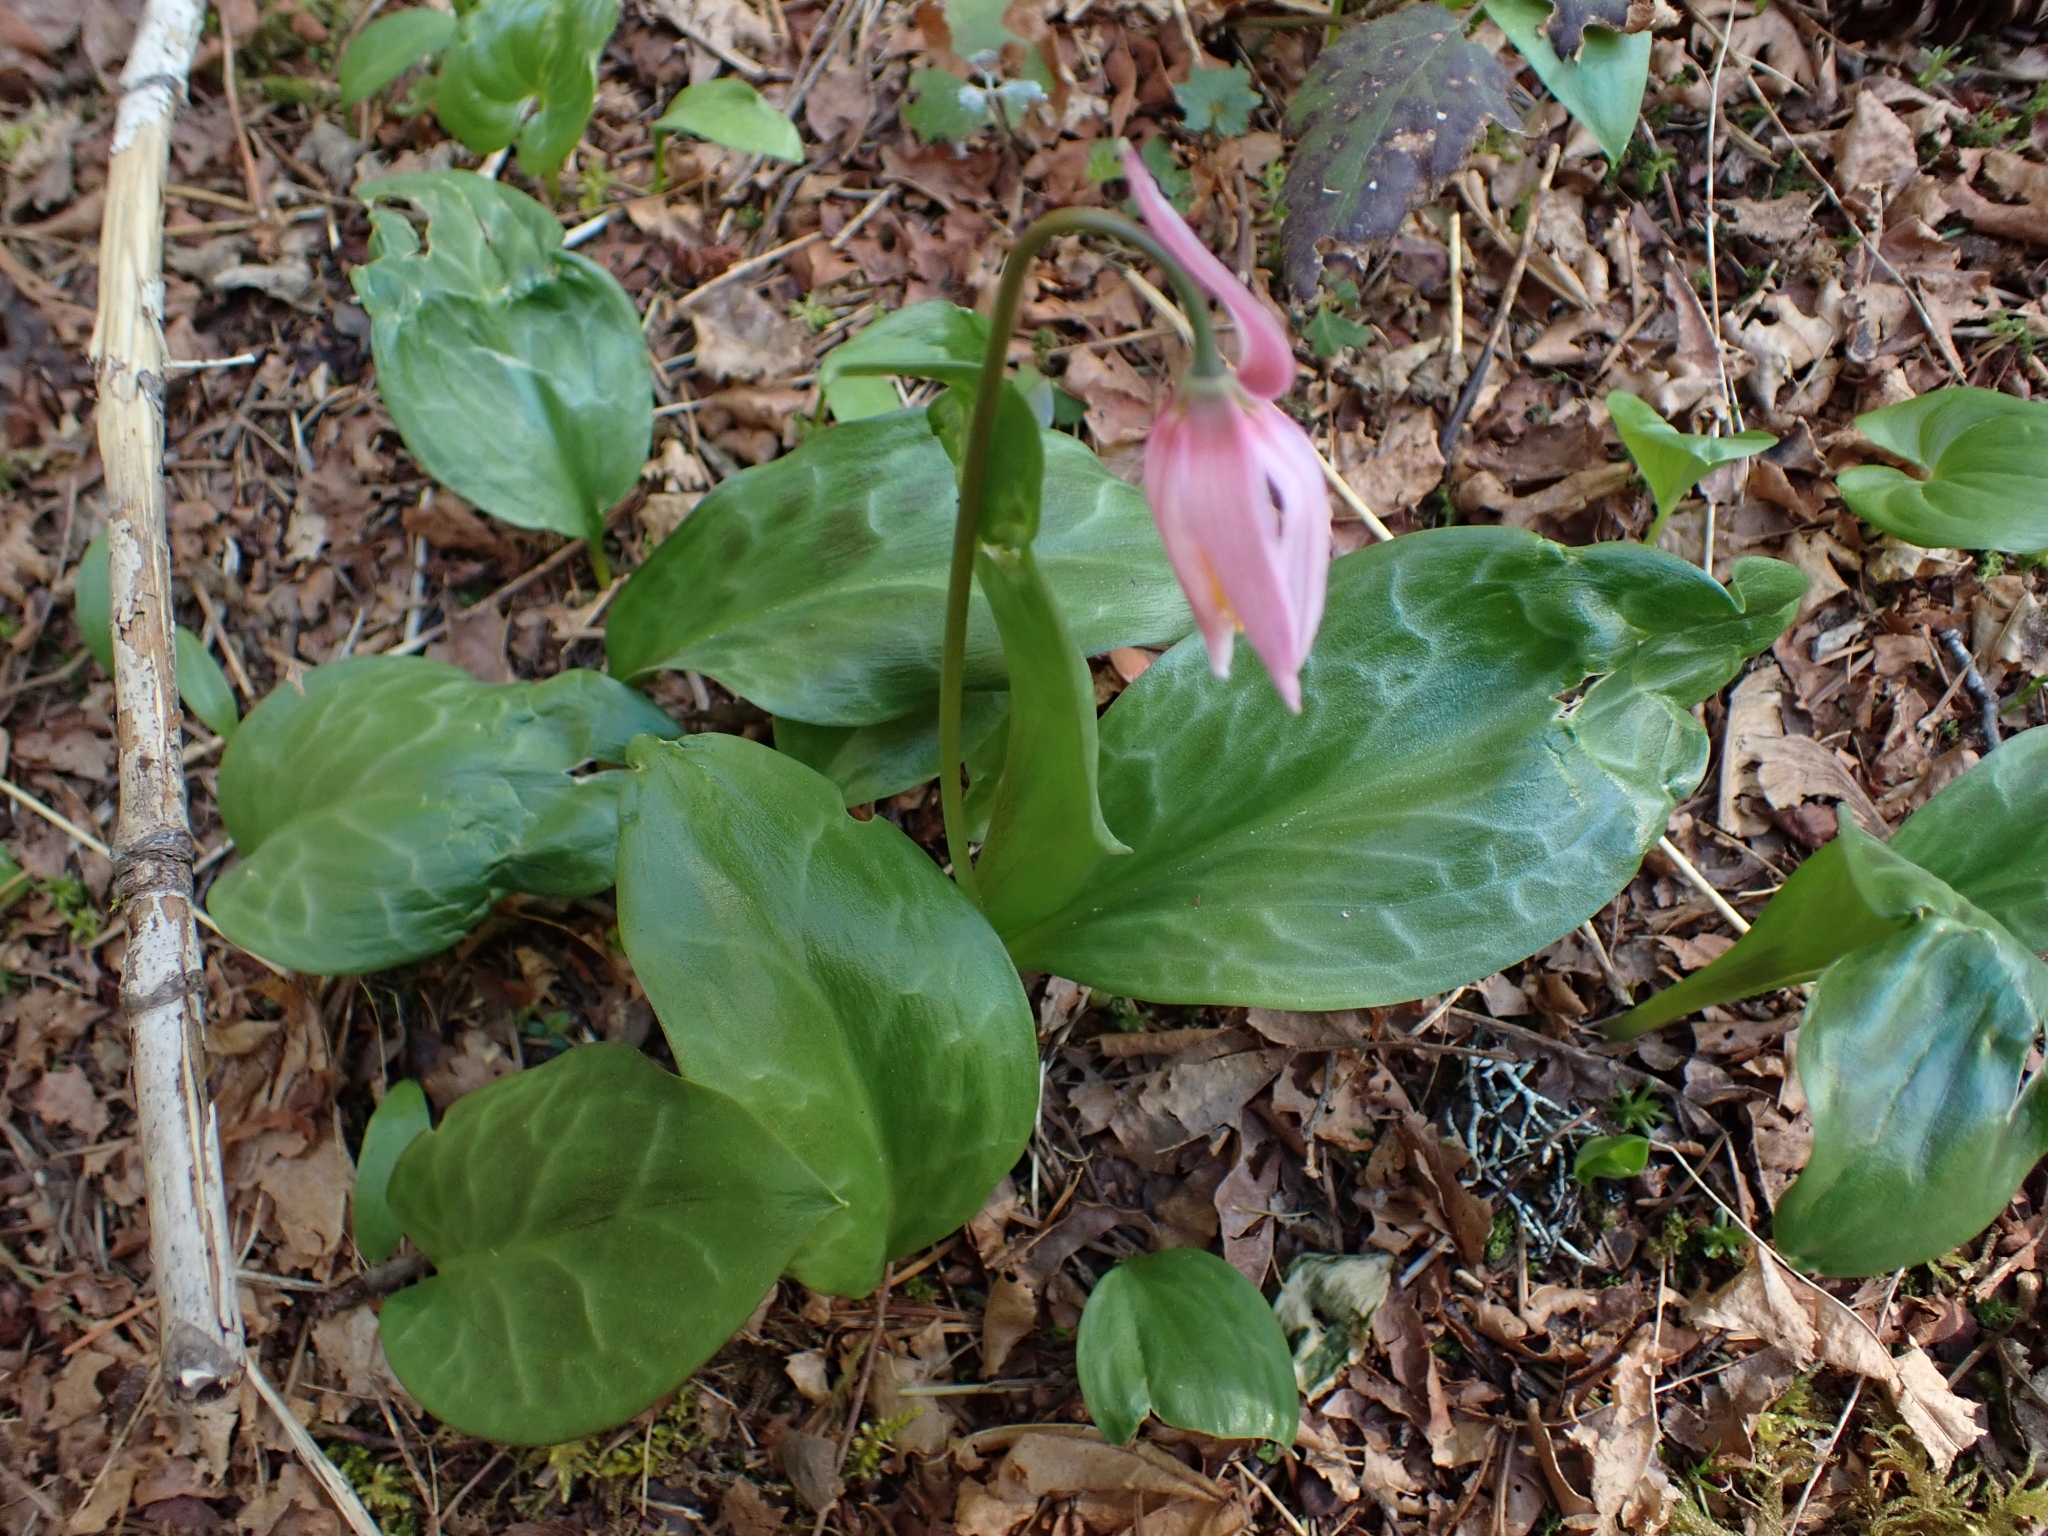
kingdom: Plantae
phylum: Tracheophyta
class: Liliopsida
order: Liliales
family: Liliaceae
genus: Erythronium
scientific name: Erythronium revolutum
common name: Pink fawn-lily
